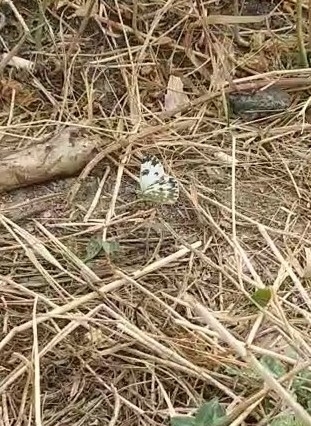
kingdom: Animalia
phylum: Arthropoda
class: Insecta
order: Lepidoptera
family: Pieridae
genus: Pontia
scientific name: Pontia edusa
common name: Eastern bath white
